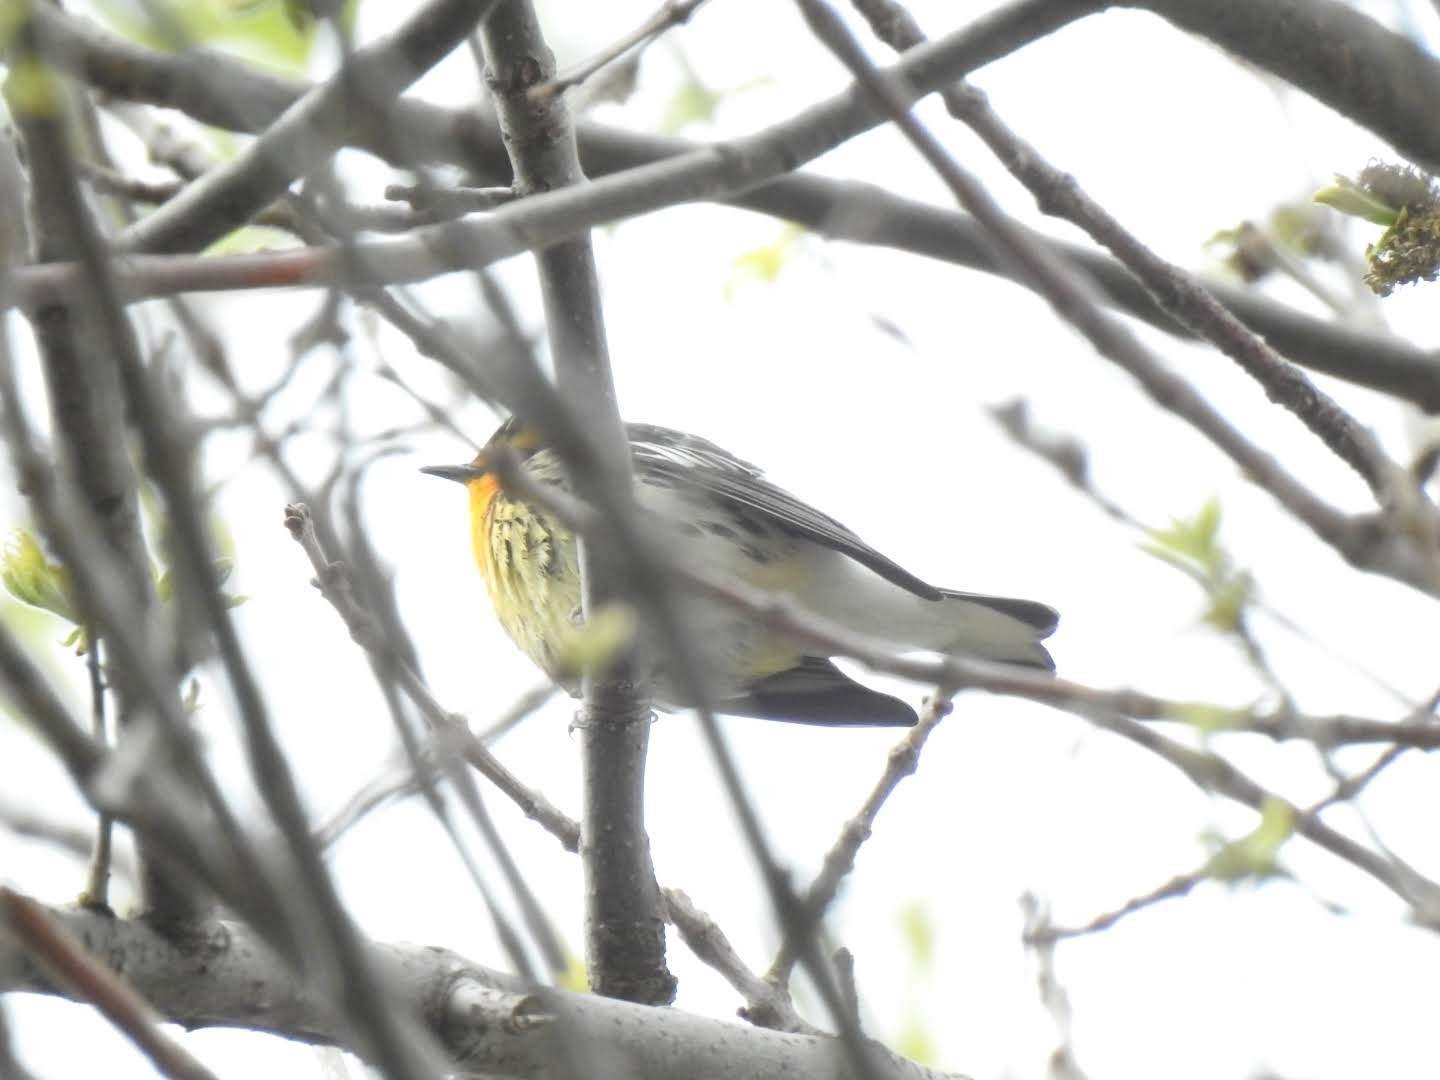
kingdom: Animalia
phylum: Chordata
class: Aves
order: Passeriformes
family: Parulidae
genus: Setophaga
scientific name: Setophaga fusca
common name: Blackburnian warbler
